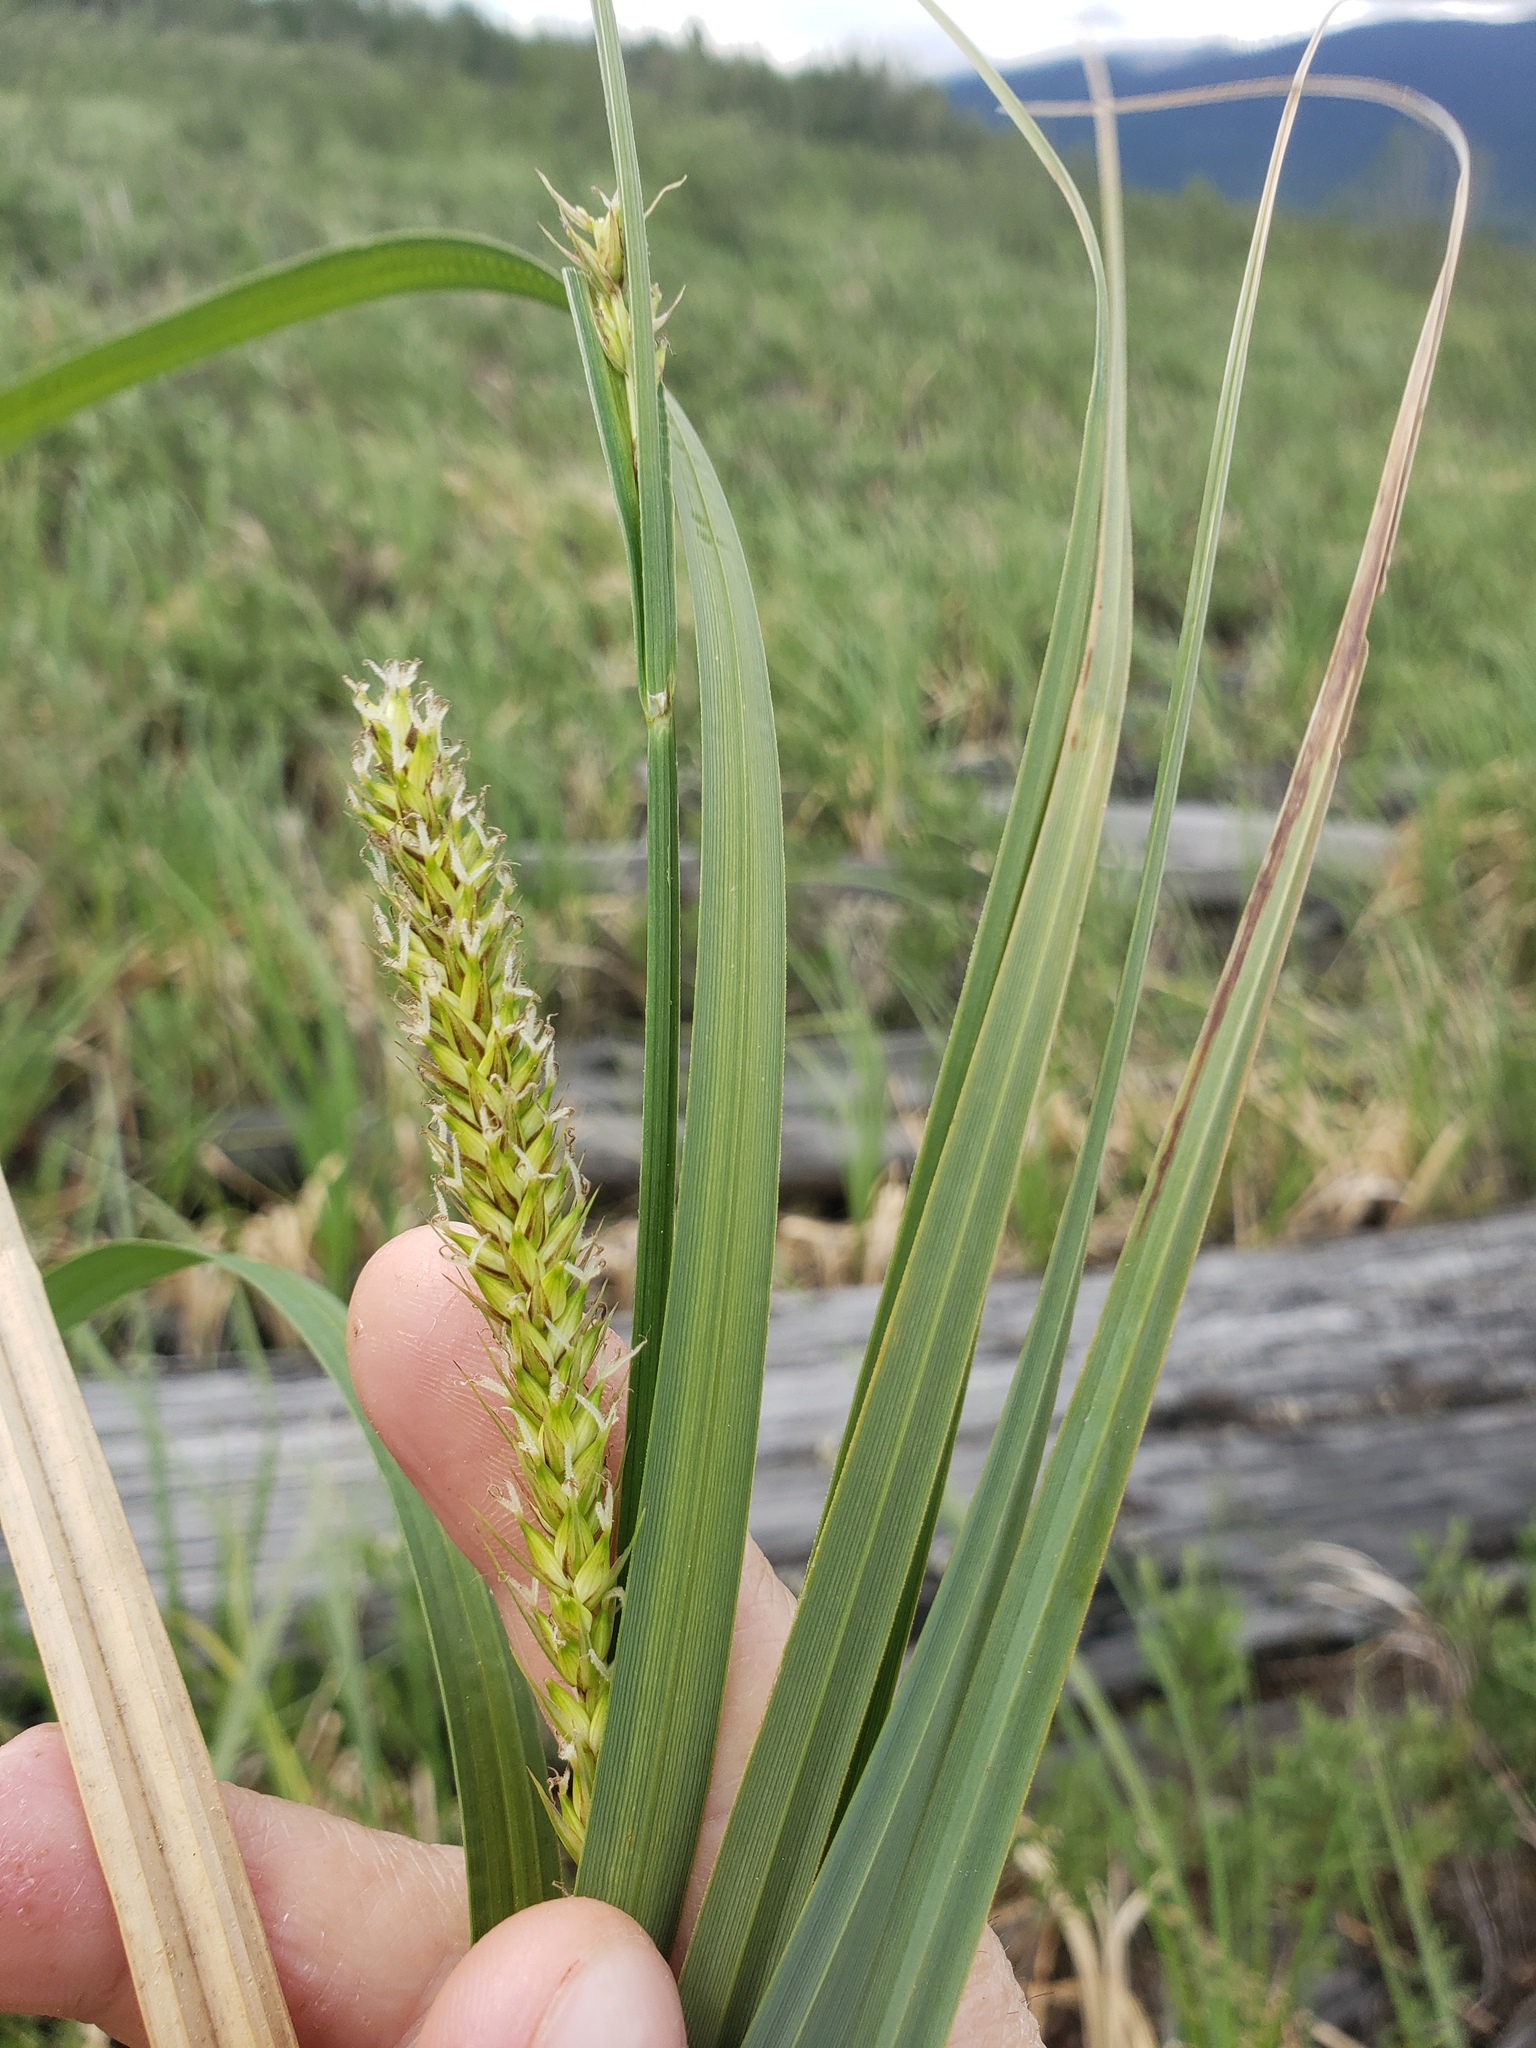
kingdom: Plantae
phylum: Tracheophyta
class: Liliopsida
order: Poales
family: Cyperaceae
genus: Carex
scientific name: Carex lacustris
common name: Common lake sedge
